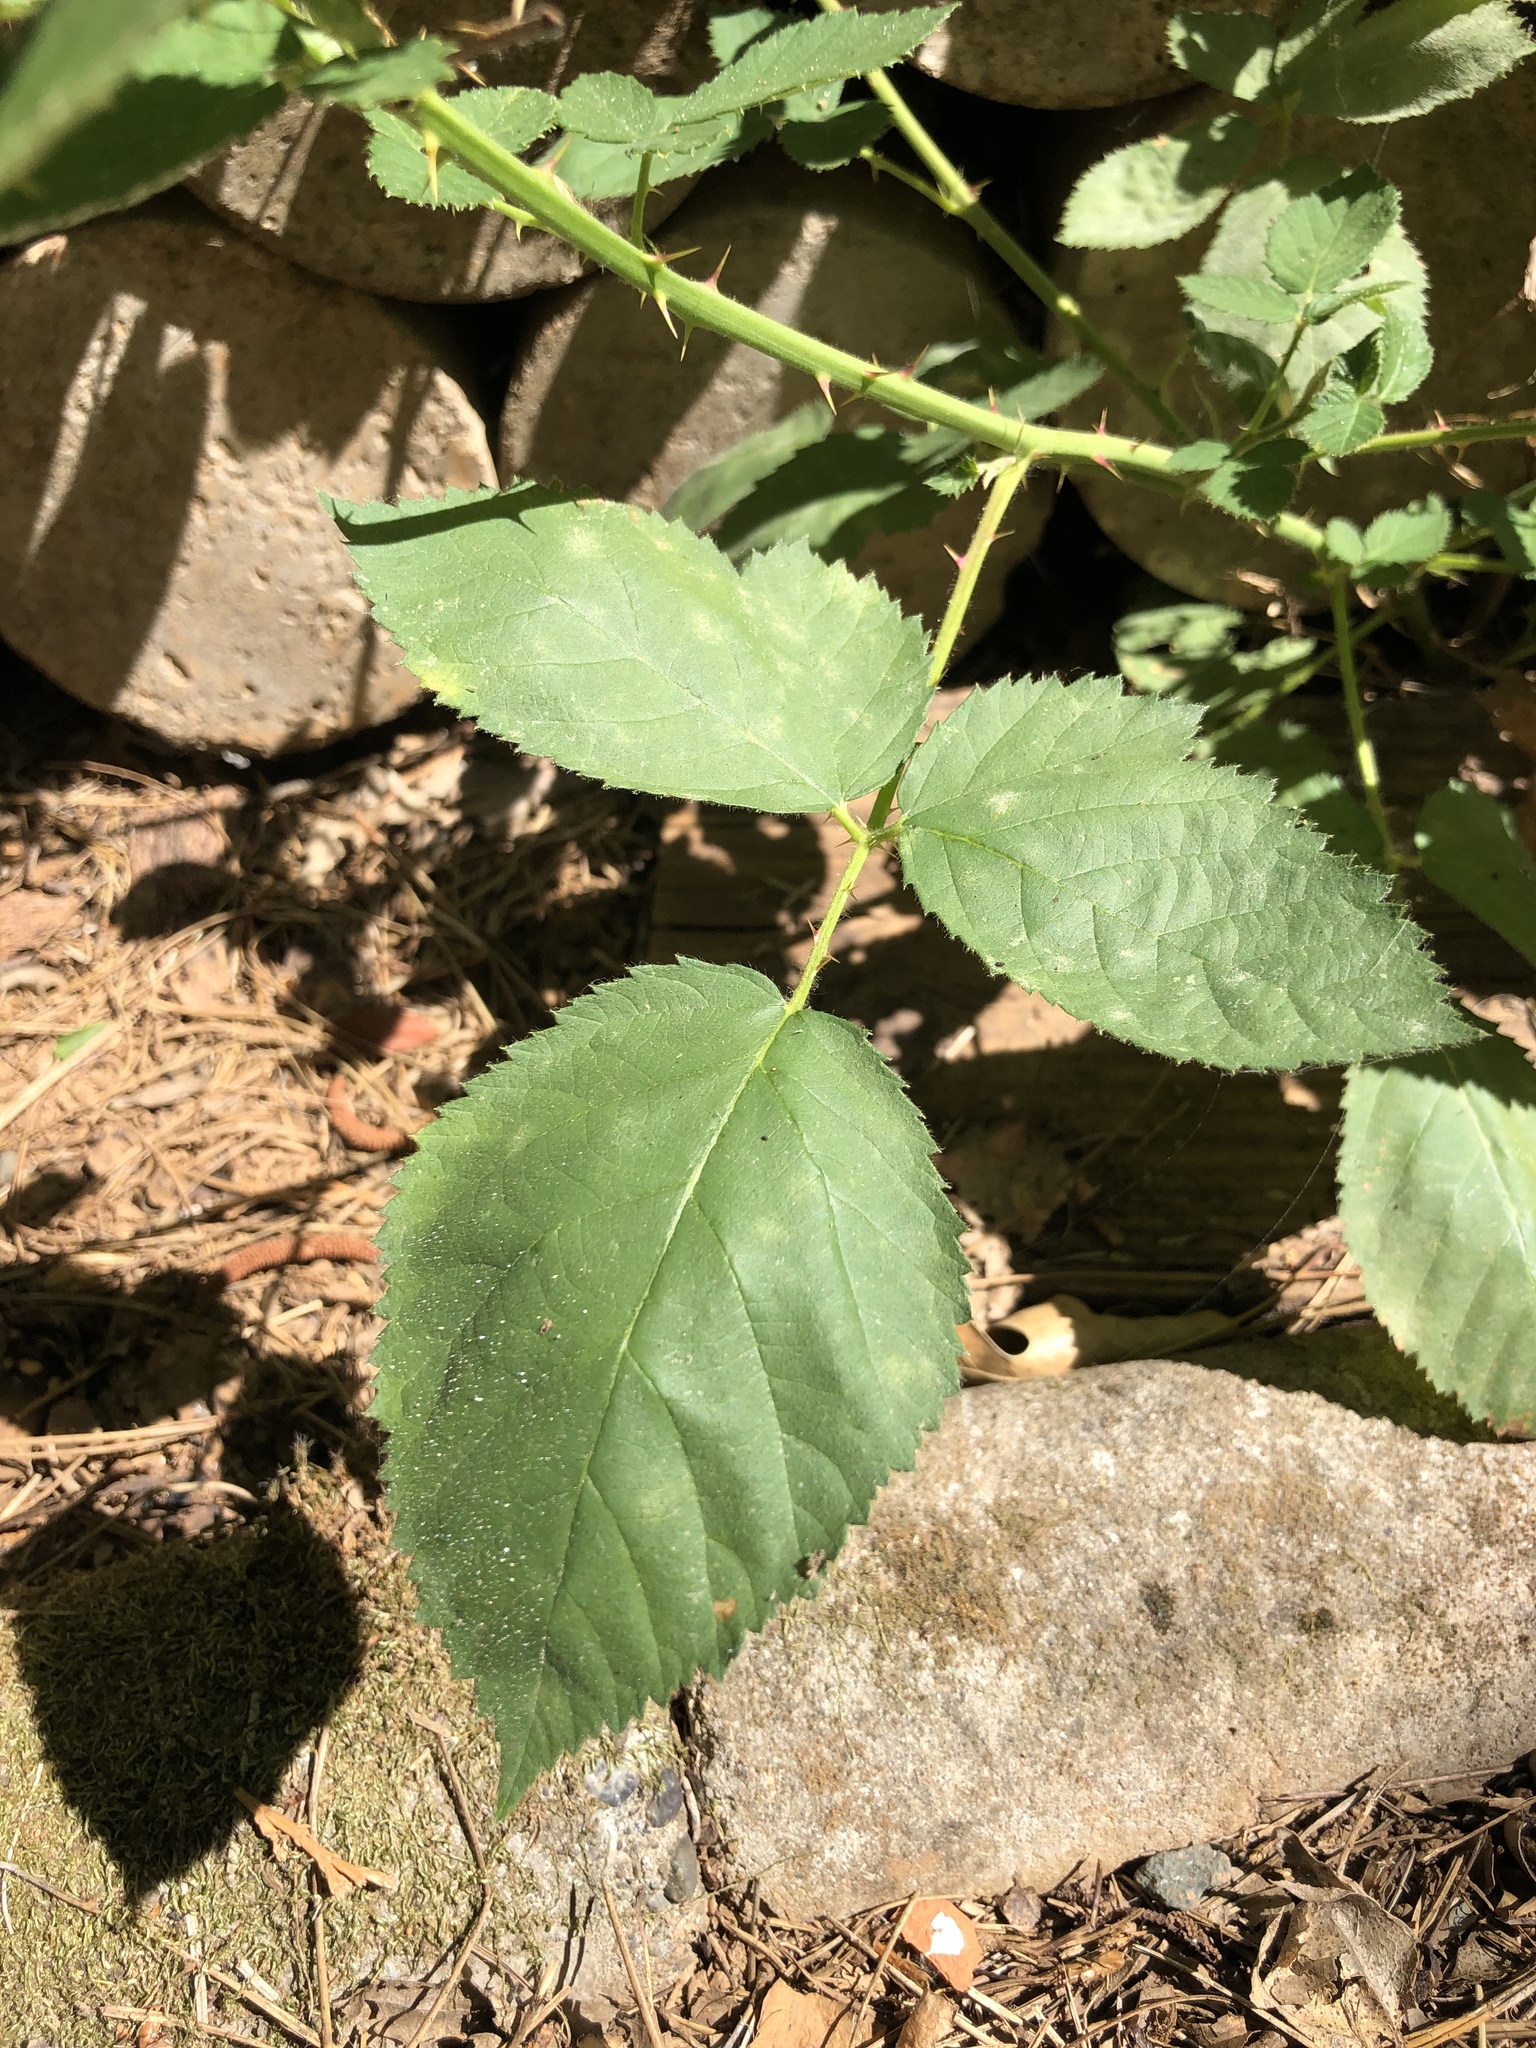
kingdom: Plantae
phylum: Tracheophyta
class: Magnoliopsida
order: Rosales
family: Rosaceae
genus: Rubus
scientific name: Rubus armeniacus
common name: Himalayan blackberry
